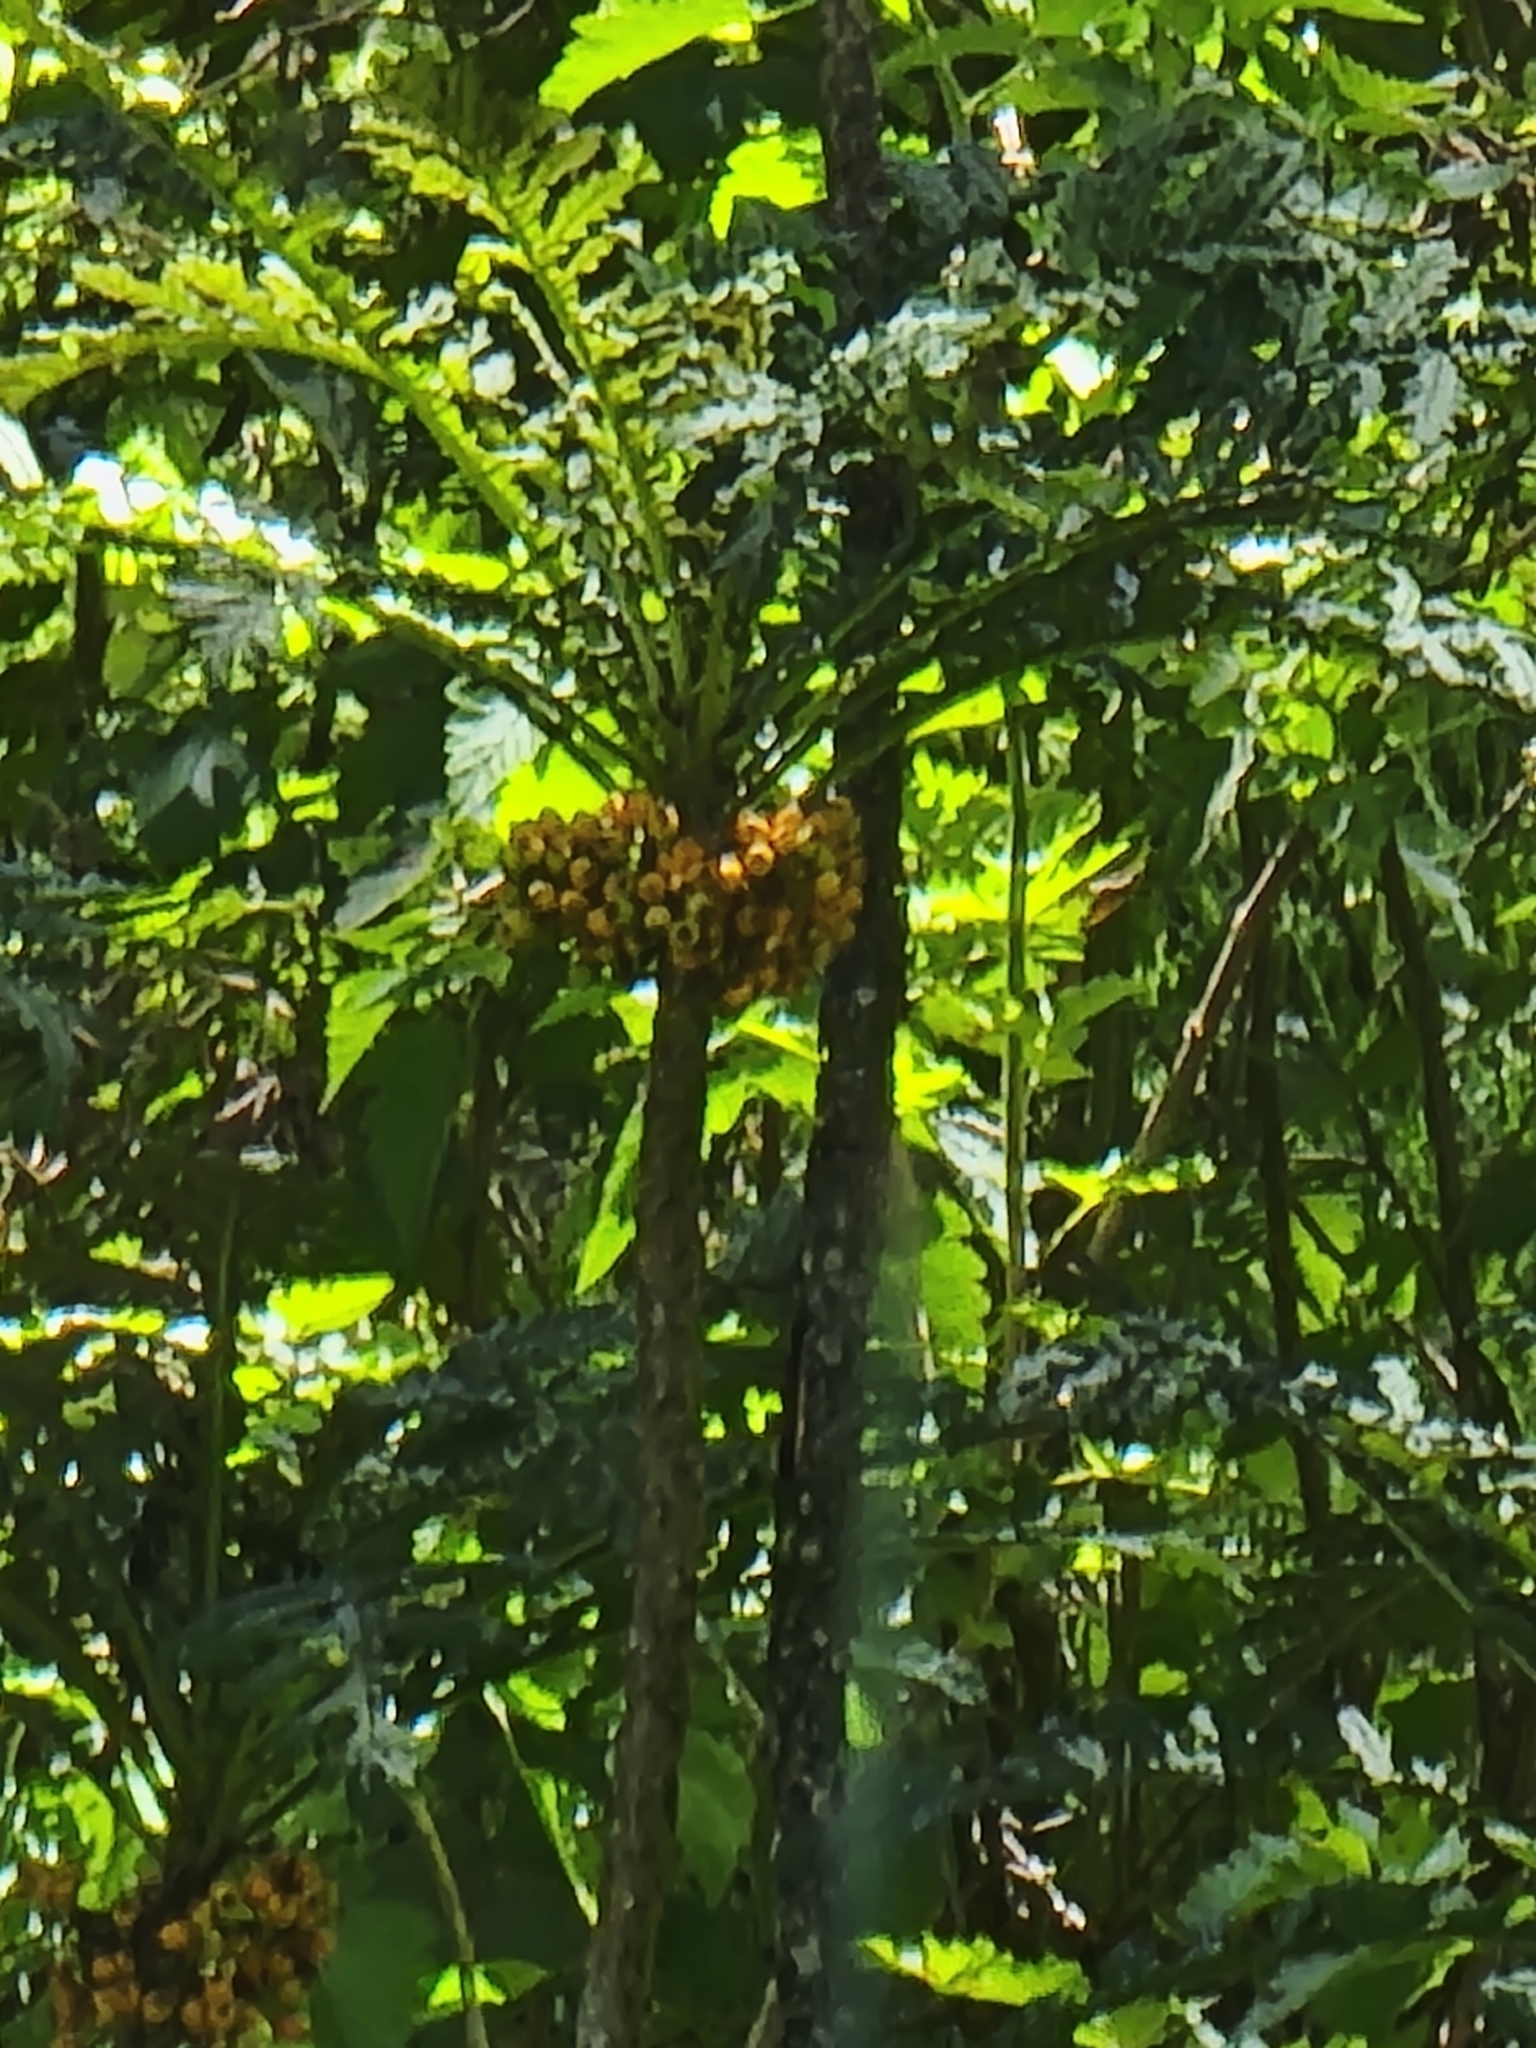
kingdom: Plantae
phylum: Tracheophyta
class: Magnoliopsida
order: Asterales
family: Campanulaceae
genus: Cyanea
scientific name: Cyanea shipmanii
